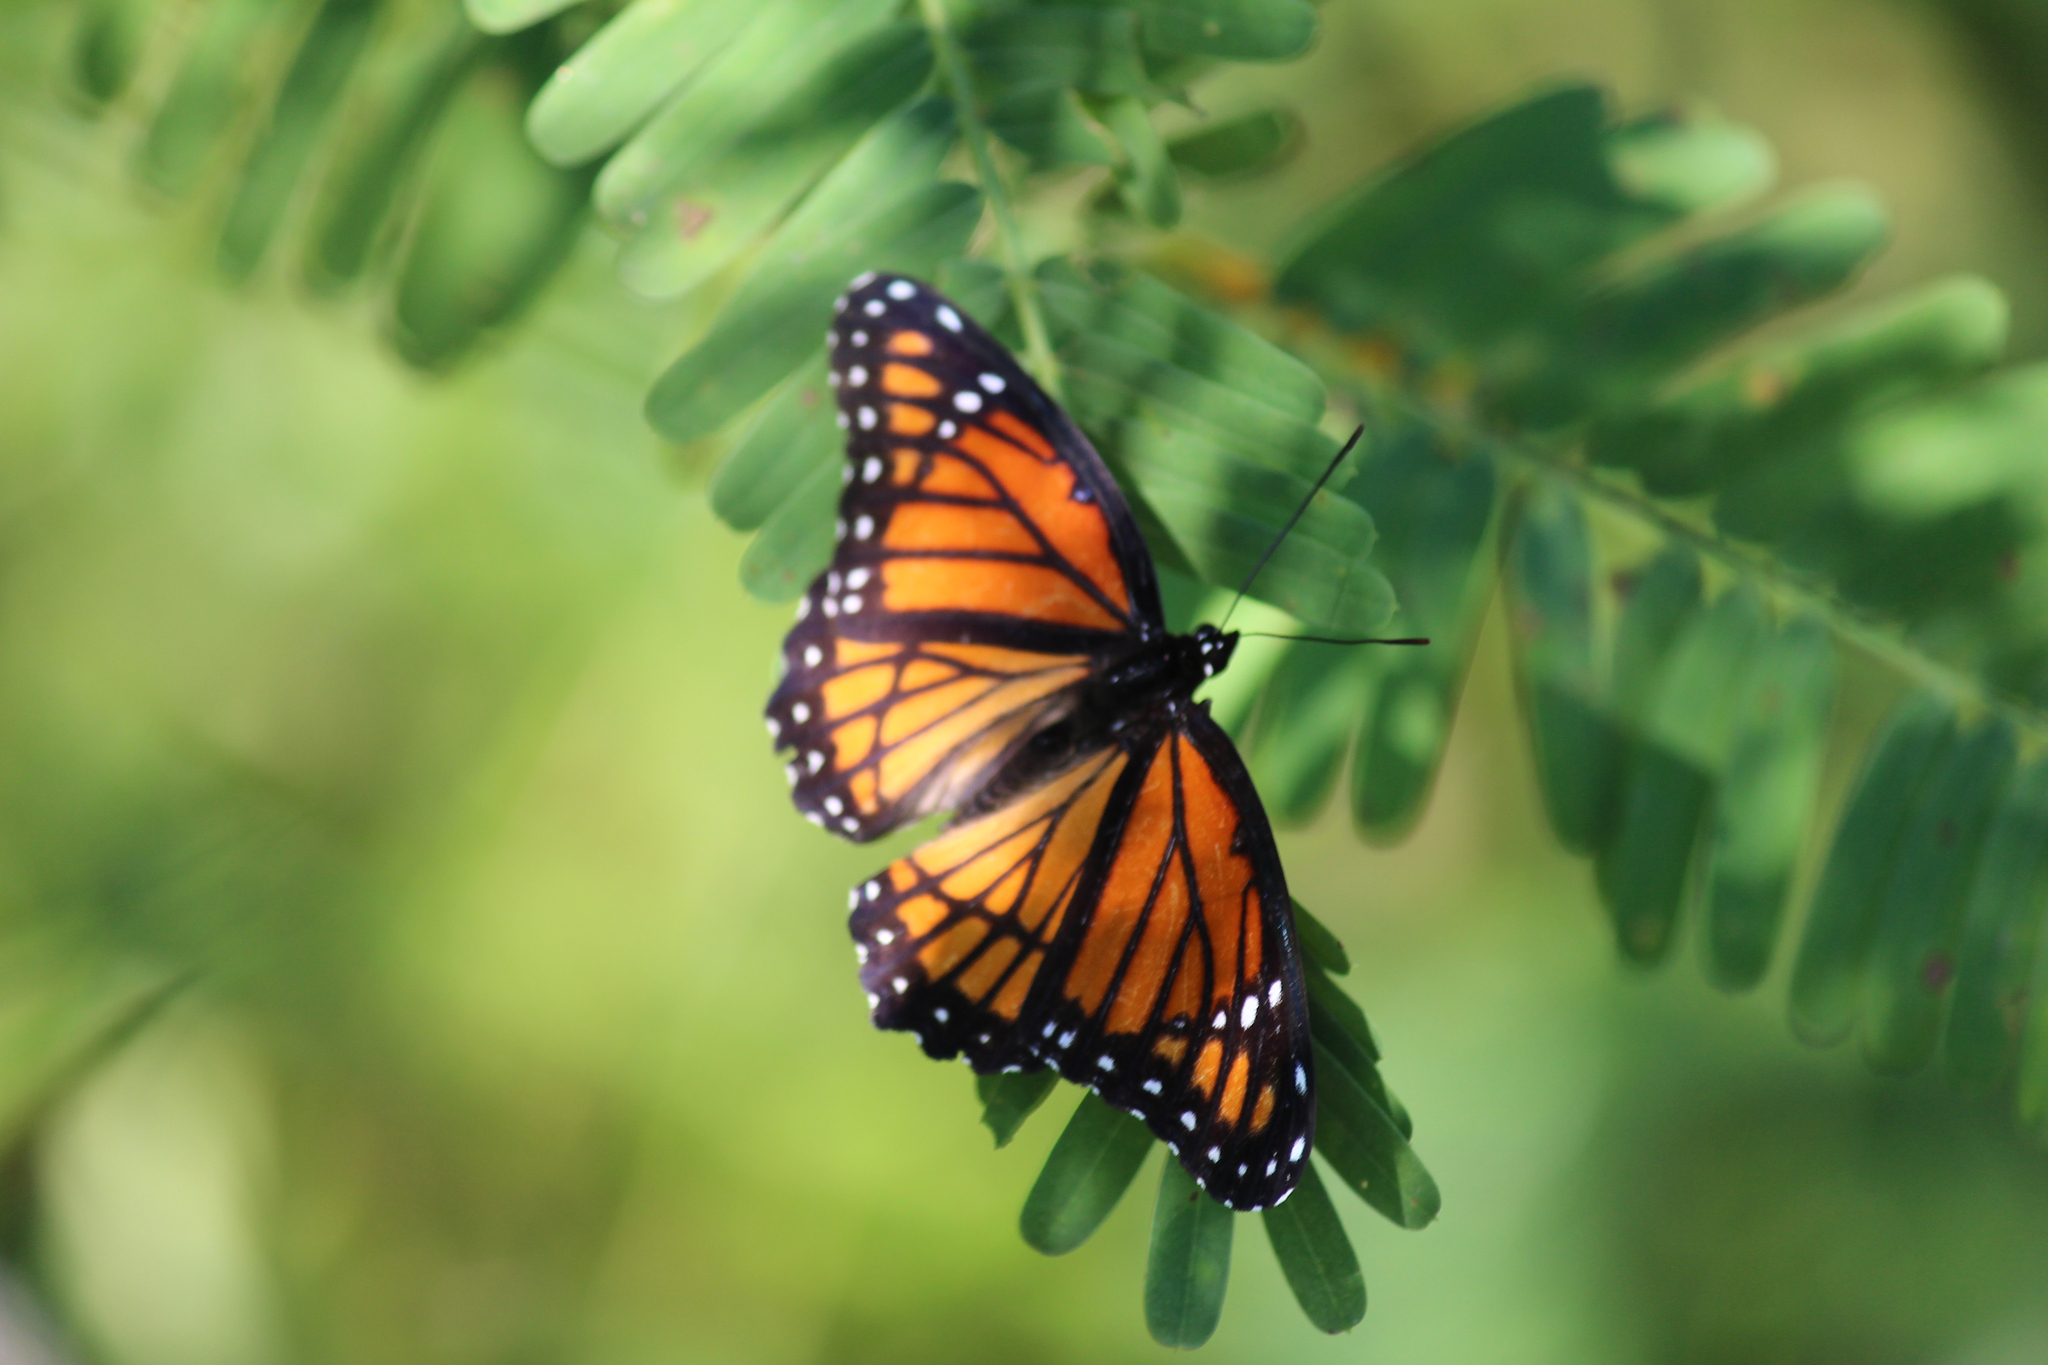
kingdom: Animalia
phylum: Arthropoda
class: Insecta
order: Lepidoptera
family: Nymphalidae
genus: Limenitis
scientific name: Limenitis archippus
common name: Viceroy
